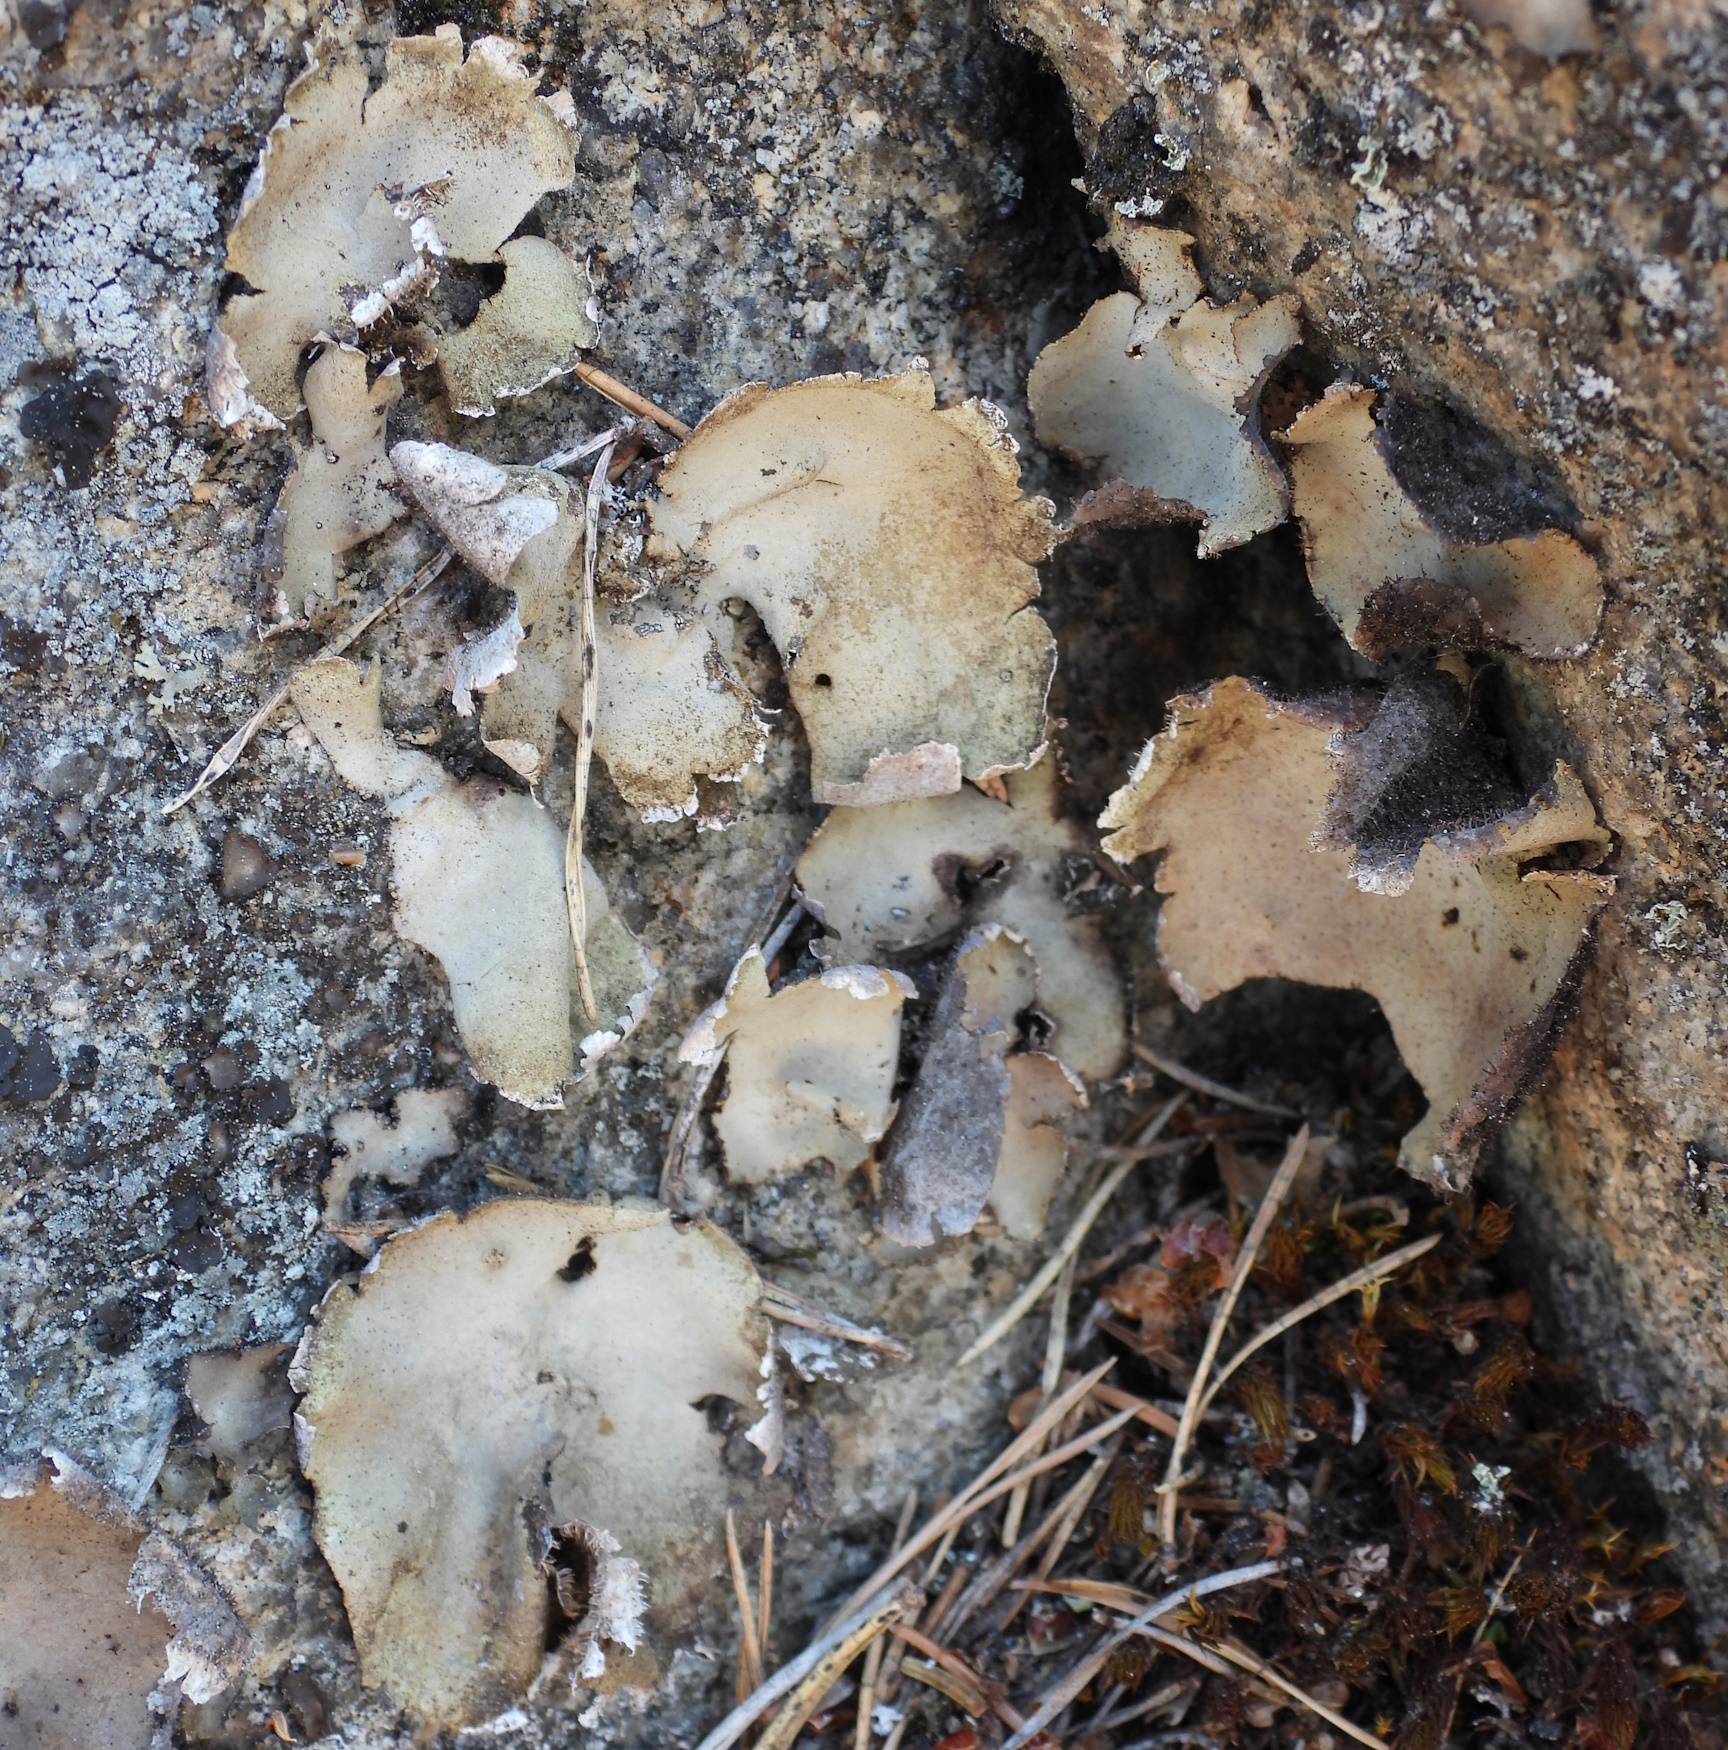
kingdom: Fungi
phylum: Ascomycota
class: Lecanoromycetes
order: Umbilicariales
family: Umbilicariaceae
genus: Umbilicaria
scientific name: Umbilicaria hirsuta
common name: Granulating rocktripe lichen
